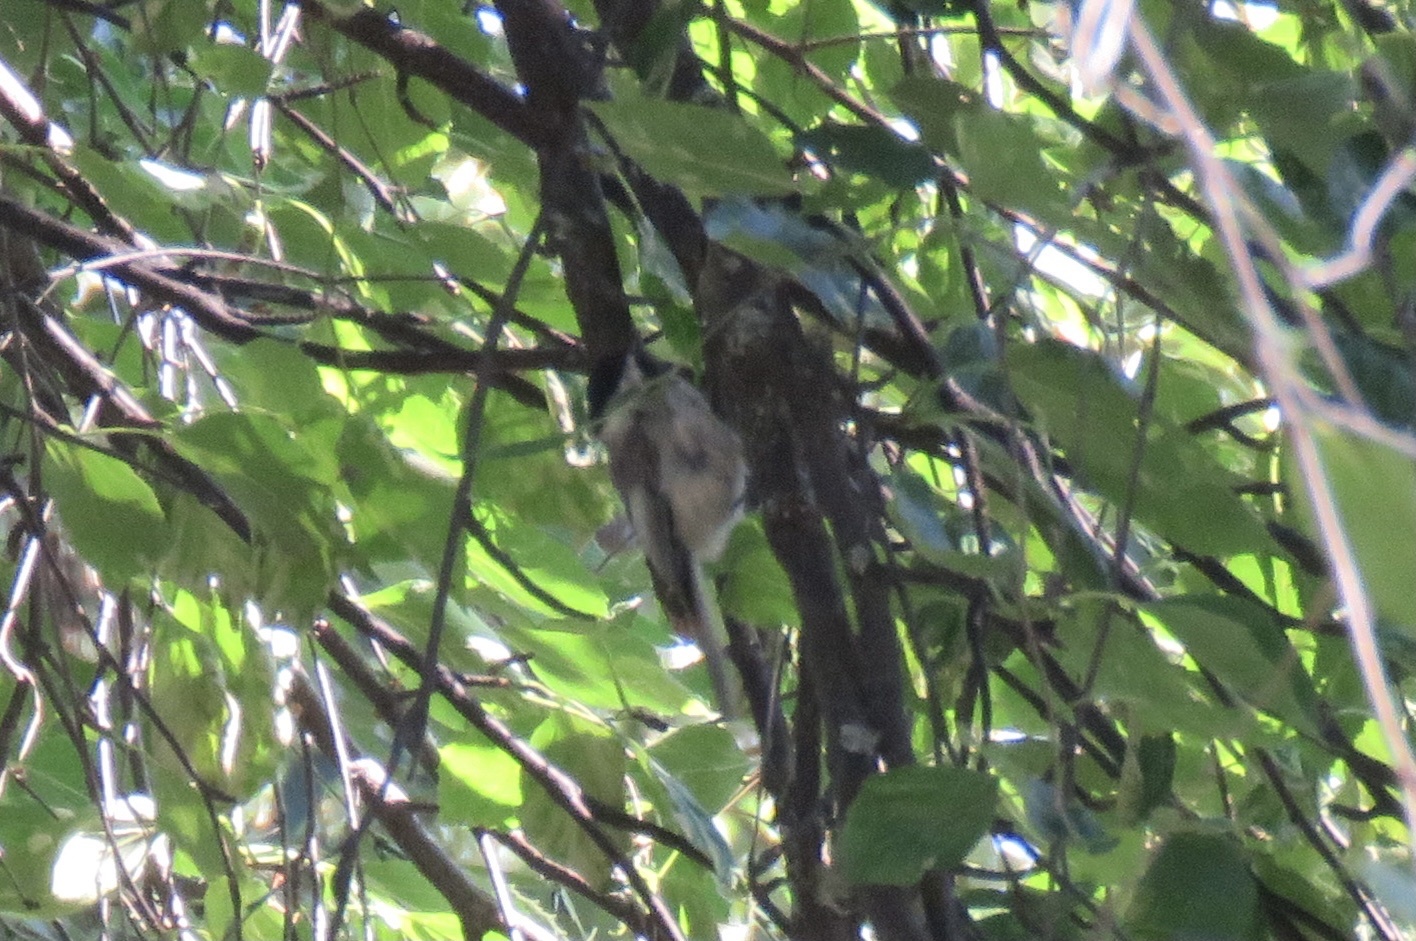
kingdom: Animalia
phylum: Chordata
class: Aves
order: Passeriformes
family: Paridae
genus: Poecile
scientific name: Poecile atricapillus
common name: Black-capped chickadee
